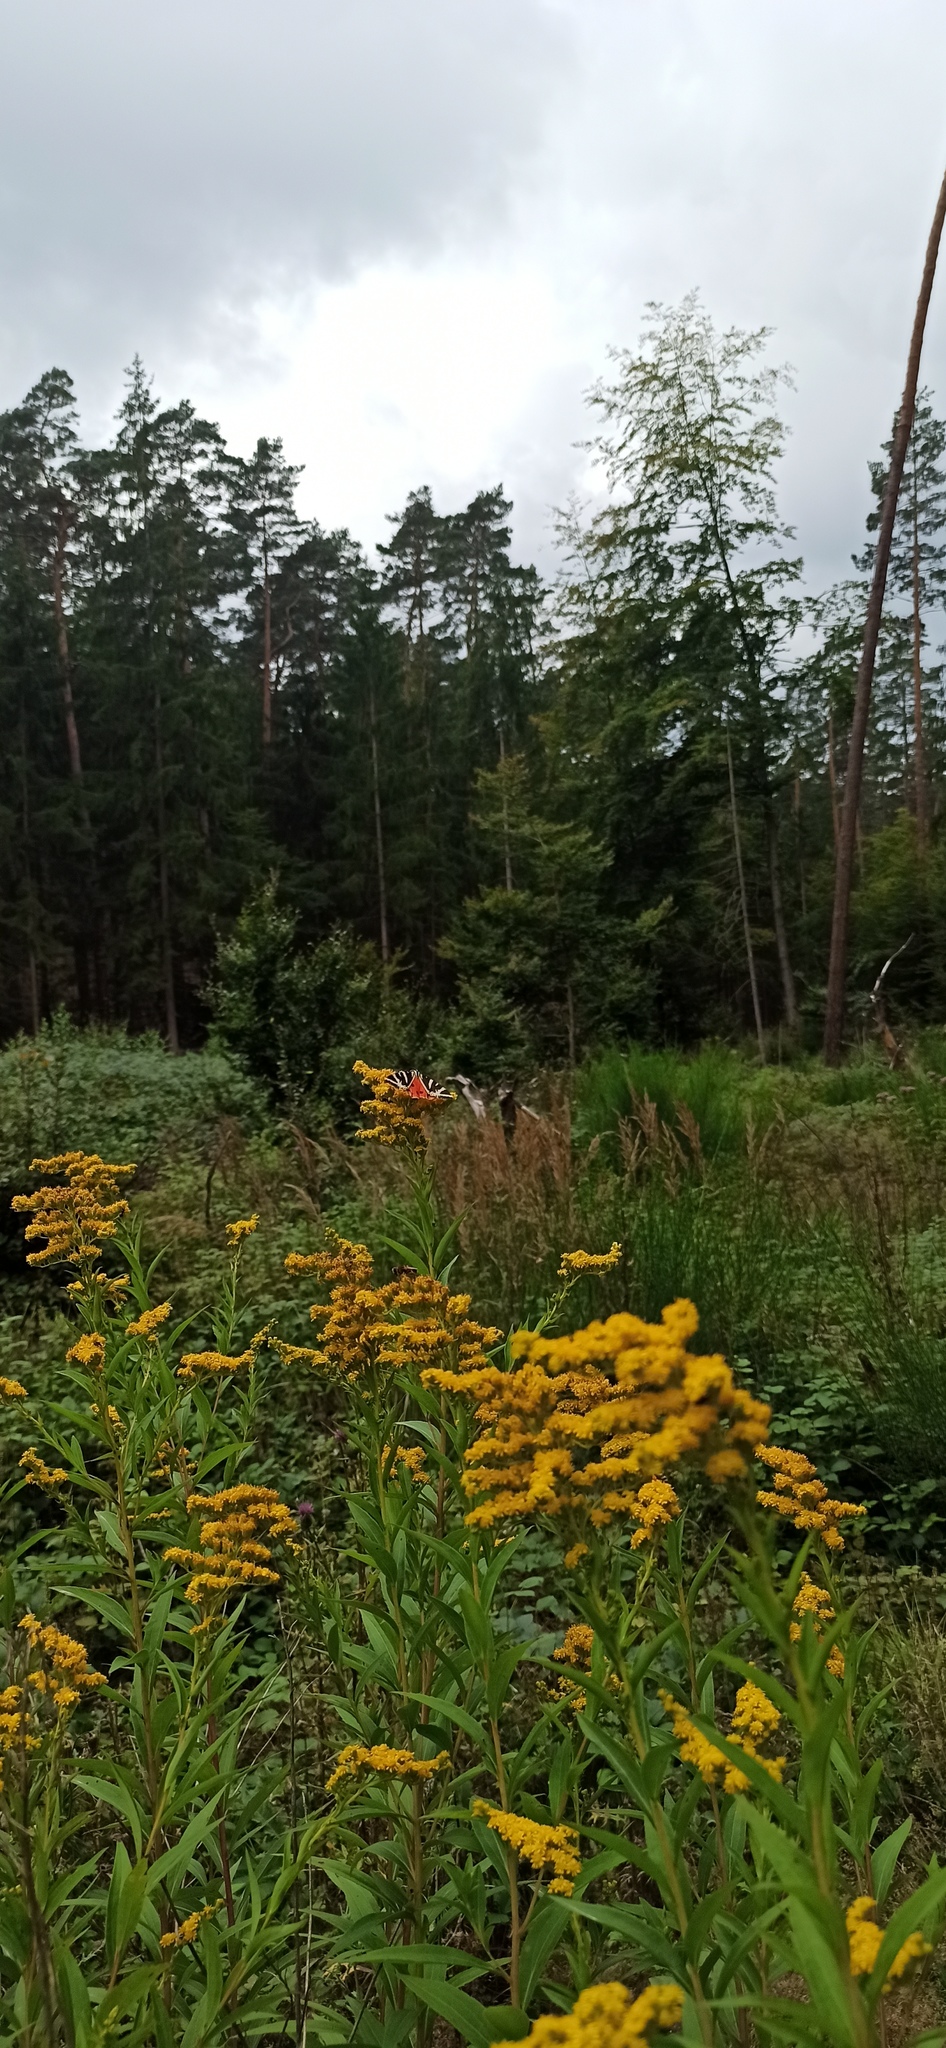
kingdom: Animalia
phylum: Arthropoda
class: Insecta
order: Lepidoptera
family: Erebidae
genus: Euplagia
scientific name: Euplagia quadripunctaria
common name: Jersey tiger
